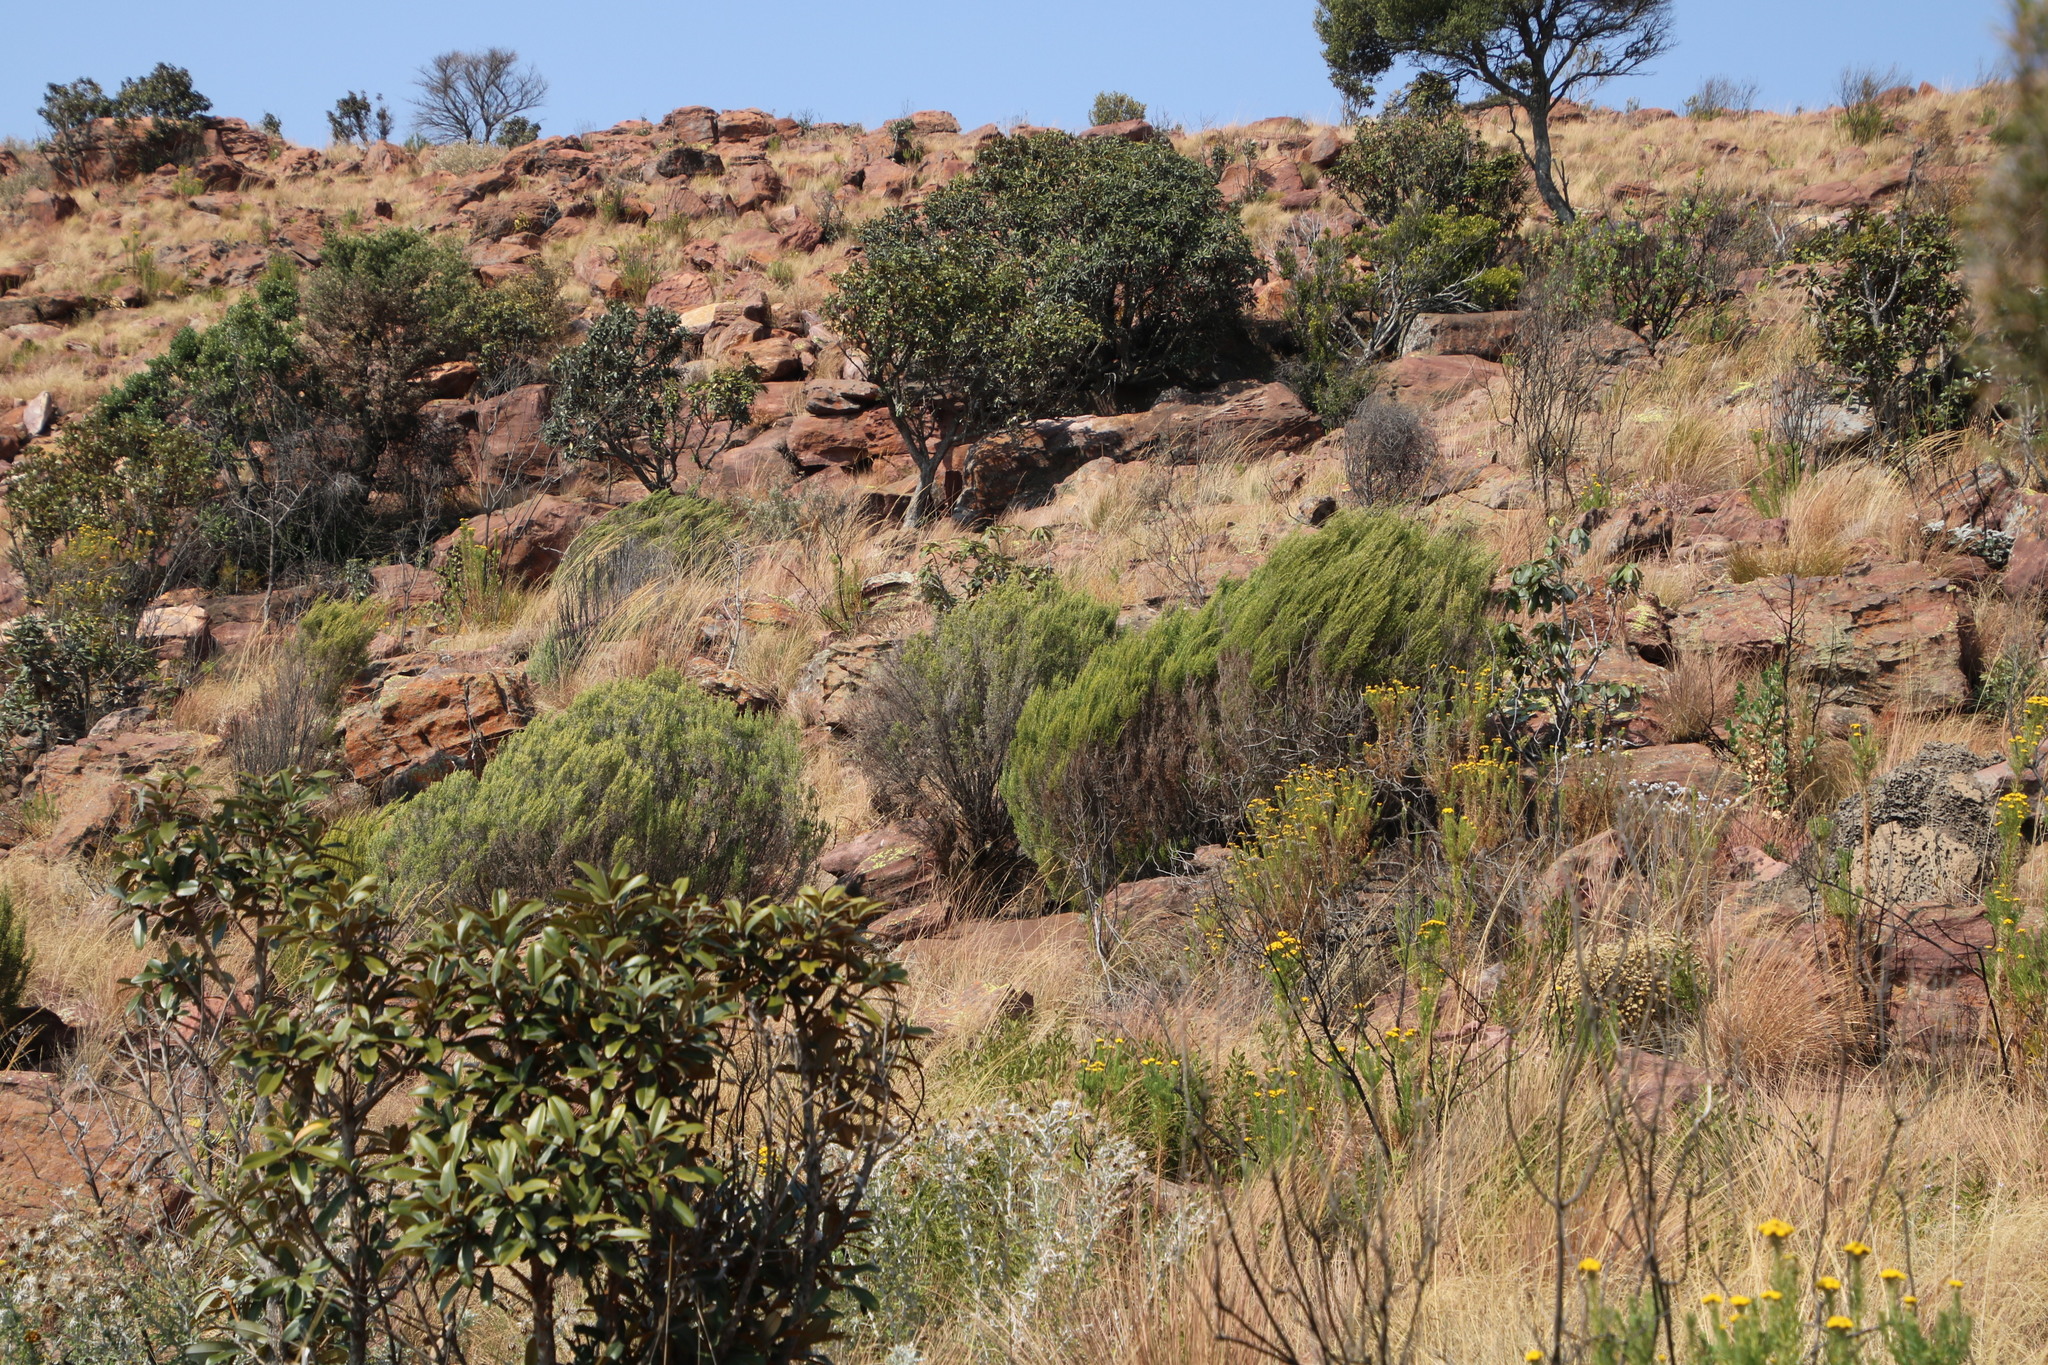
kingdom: Plantae
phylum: Tracheophyta
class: Magnoliopsida
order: Malvales
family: Thymelaeaceae
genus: Passerina
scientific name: Passerina montana
